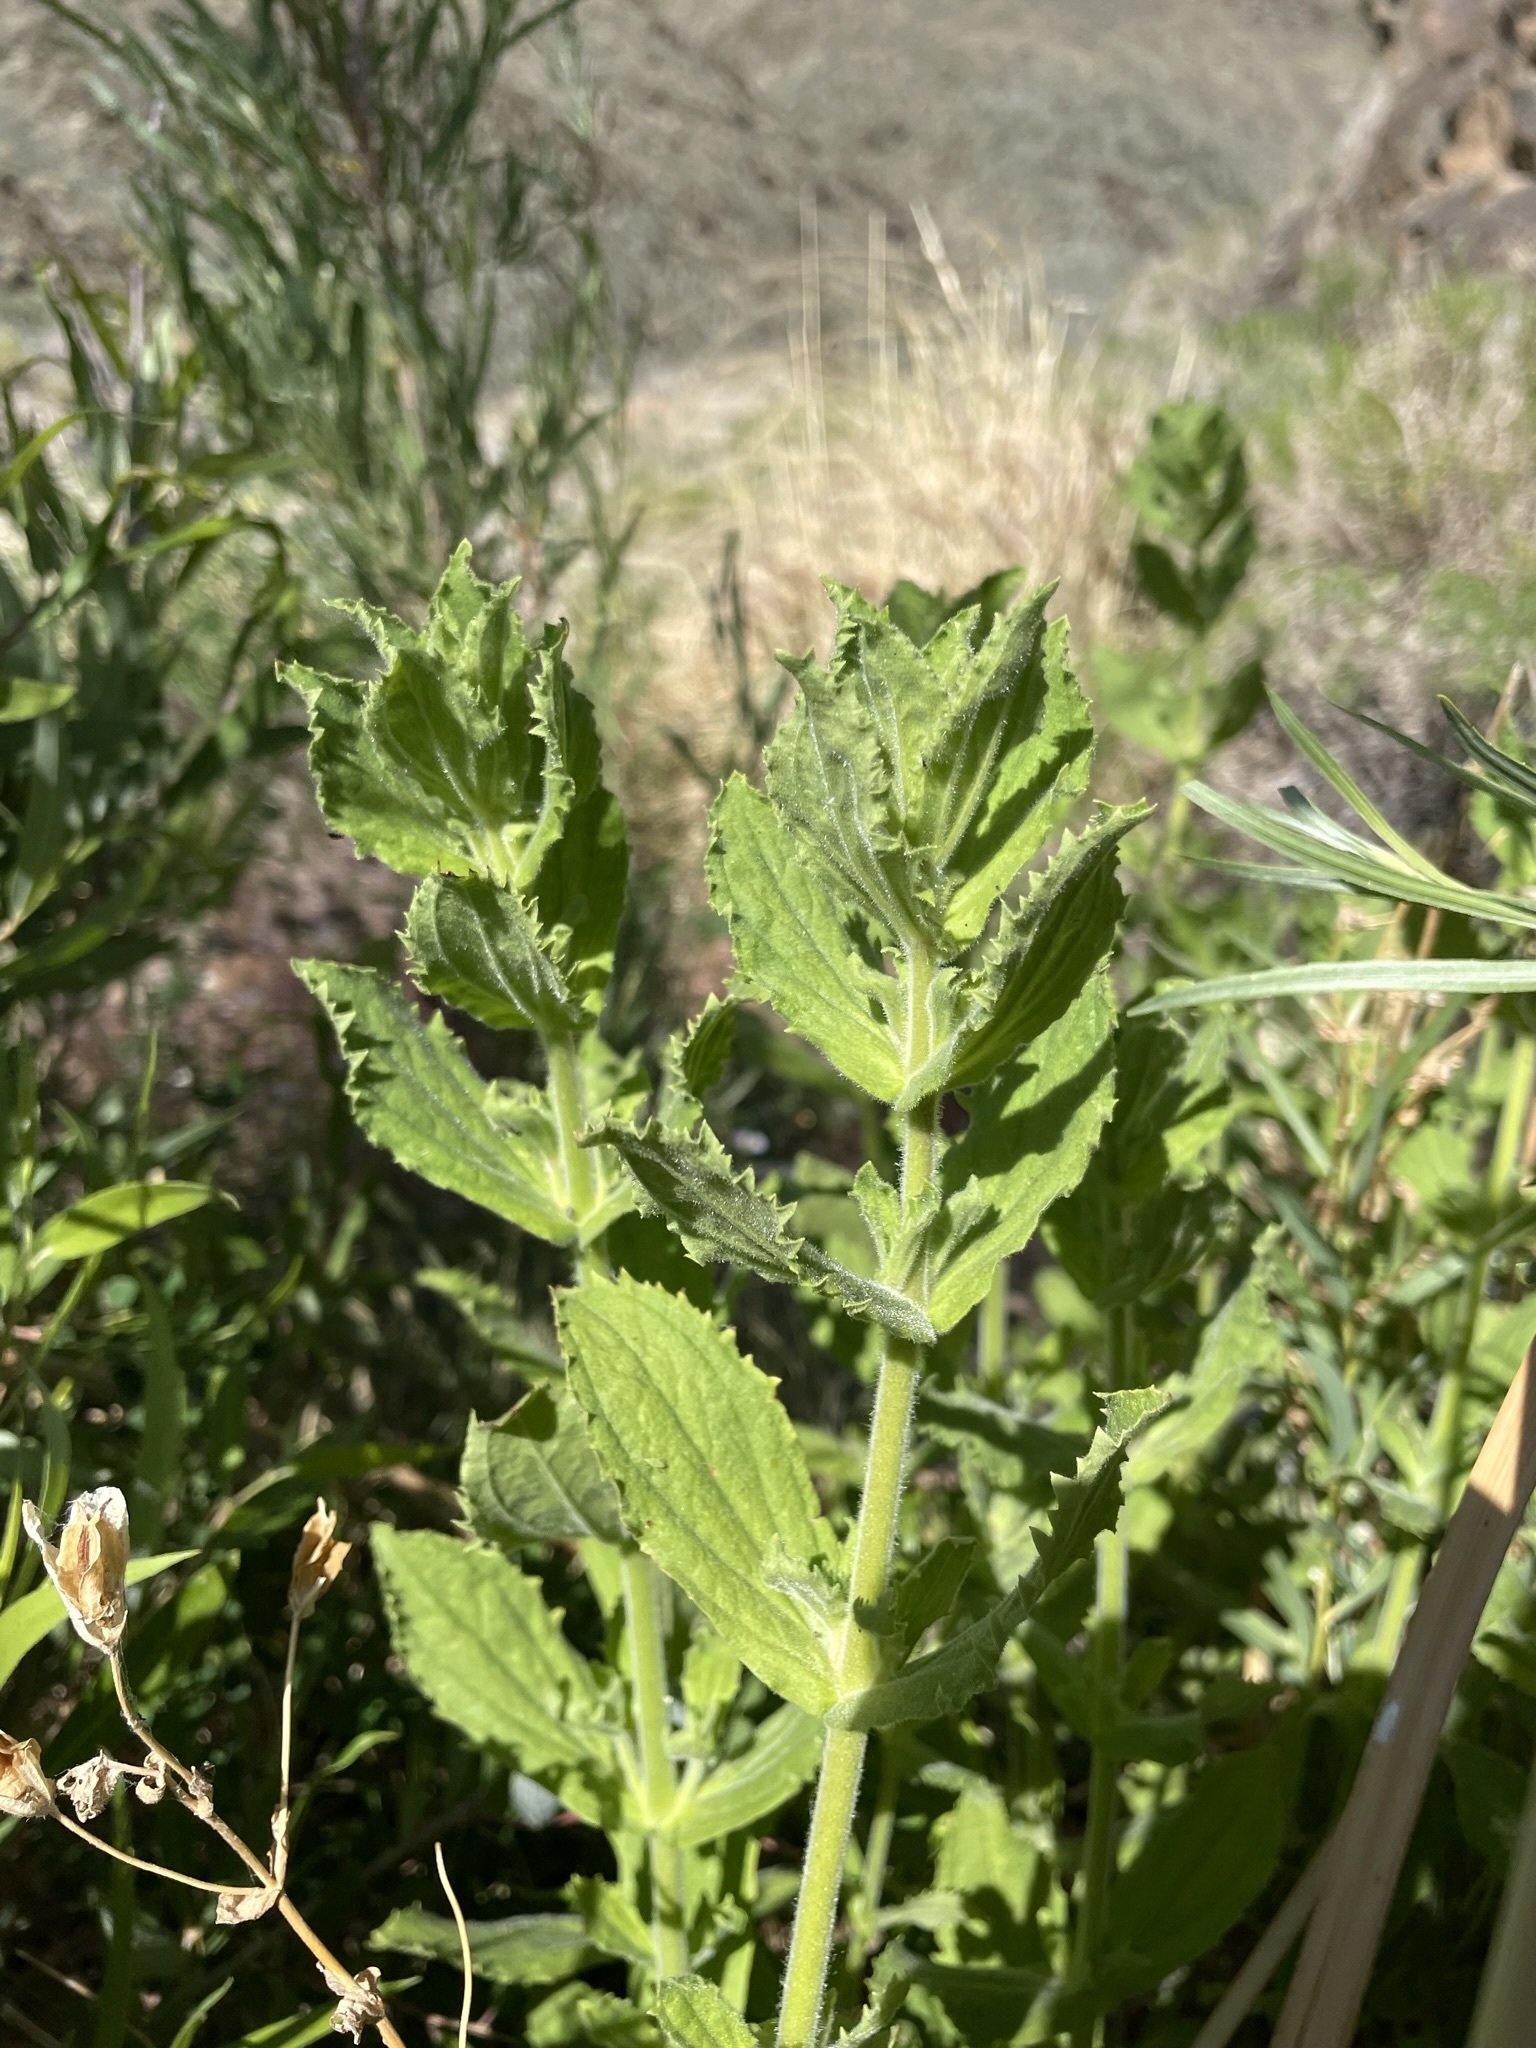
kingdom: Plantae
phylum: Tracheophyta
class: Magnoliopsida
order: Lamiales
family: Phrymaceae
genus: Erythranthe
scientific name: Erythranthe cardinalis
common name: Scarlet monkey-flower
